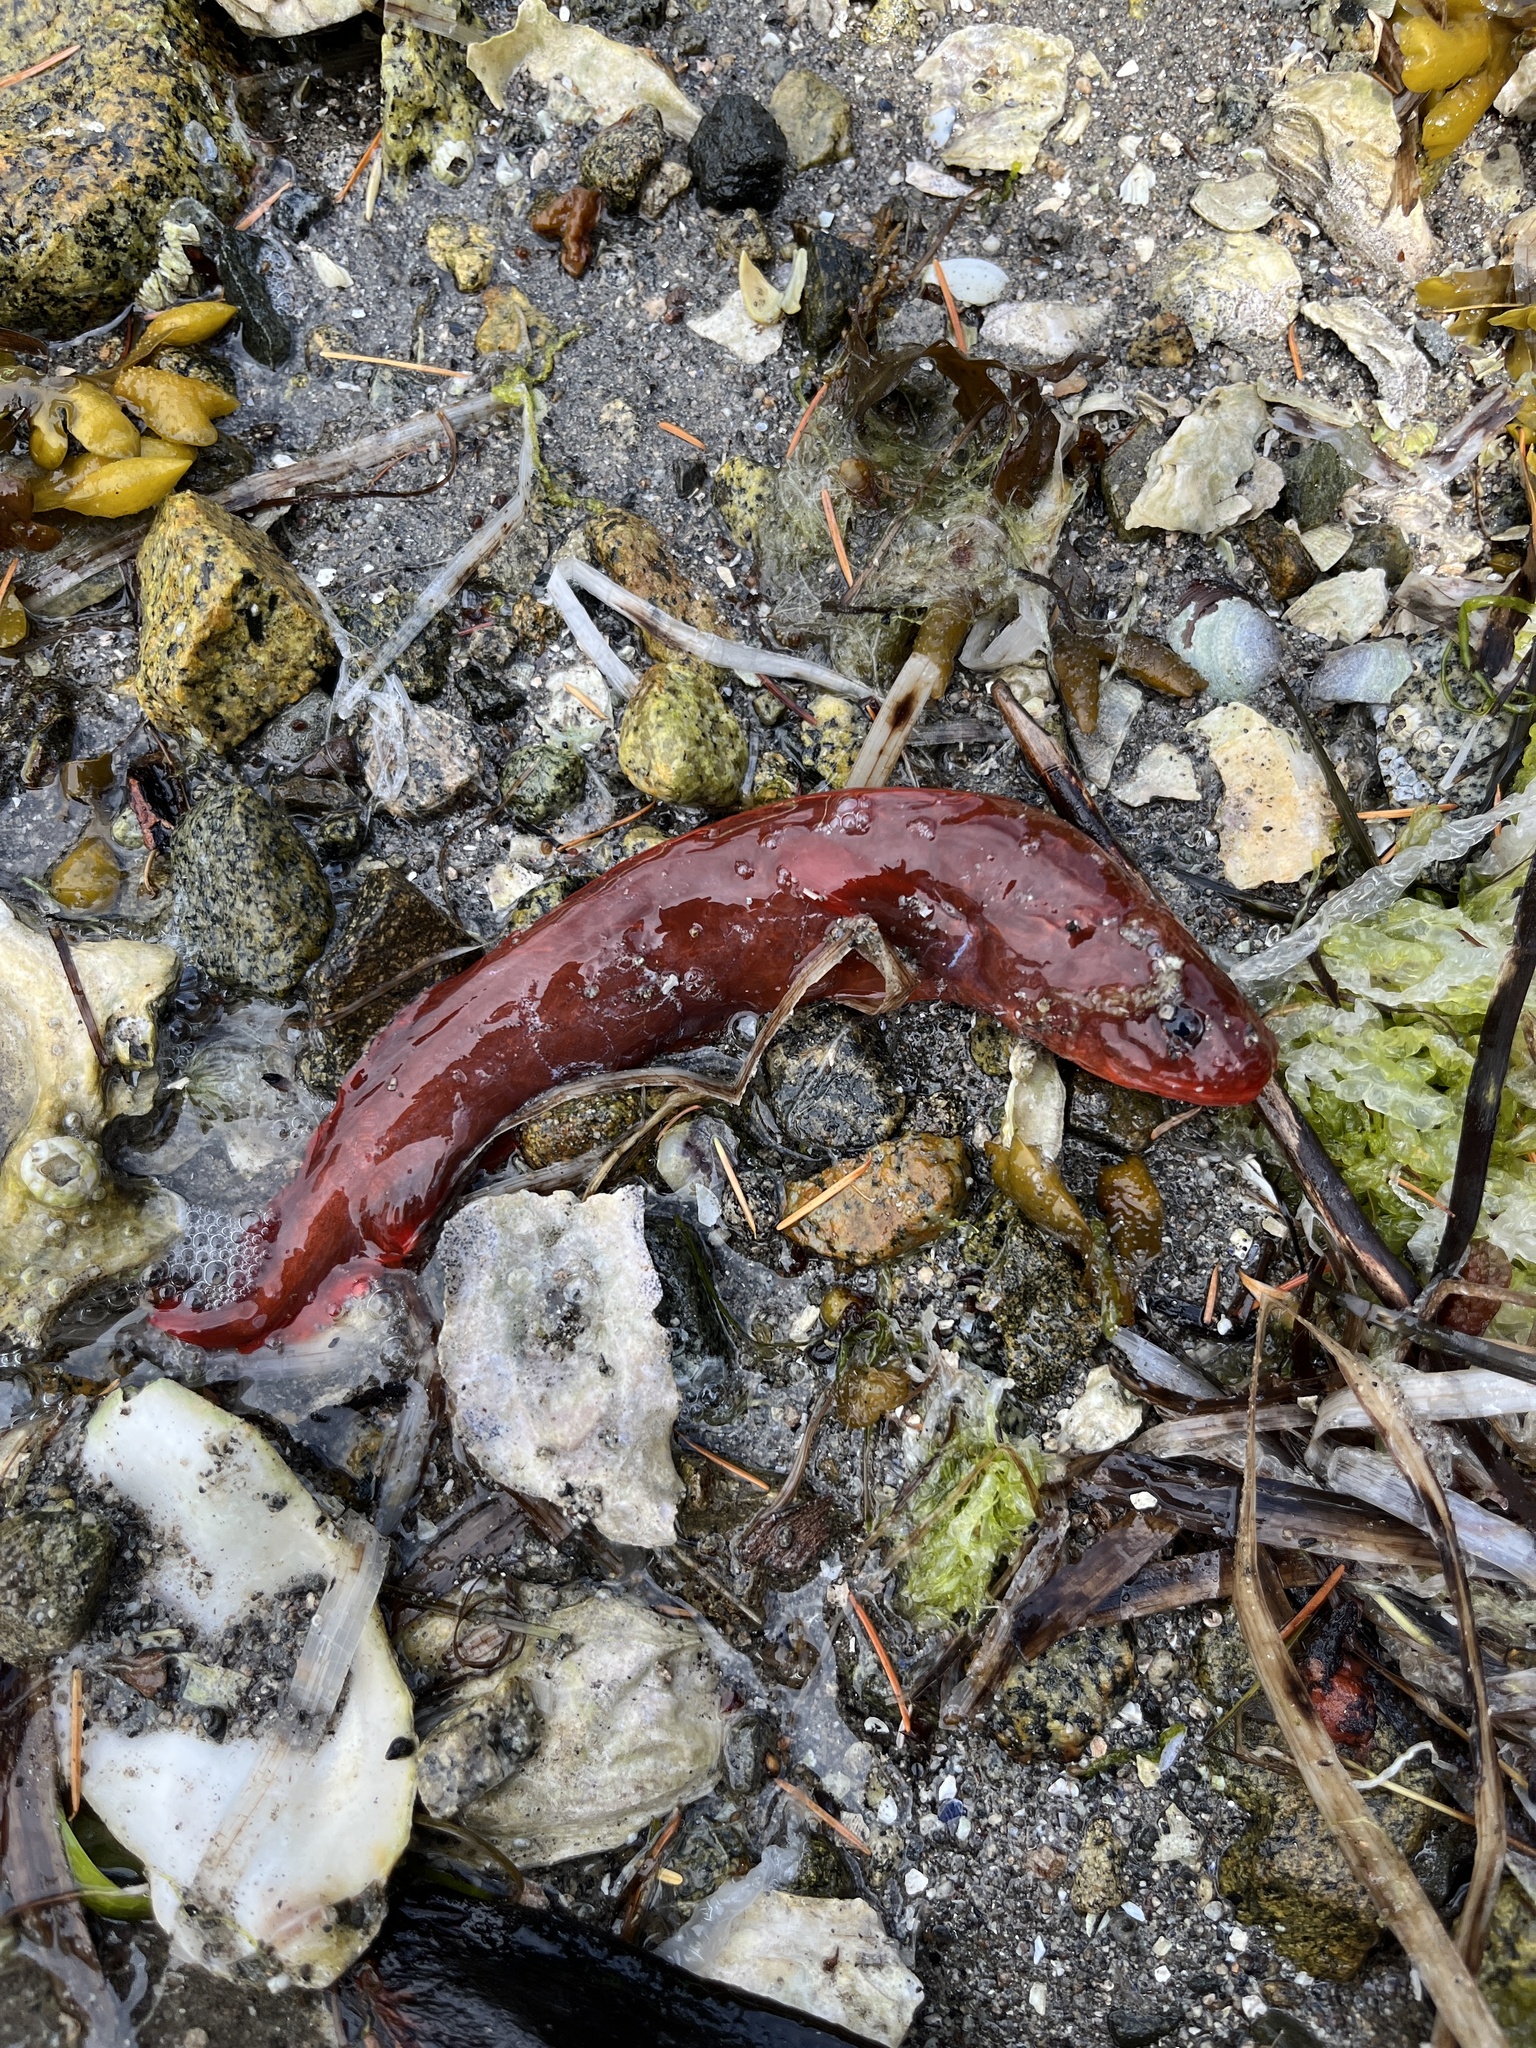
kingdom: Animalia
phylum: Chordata
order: Ophidiiformes
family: Bythitidae
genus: Brosmophycis
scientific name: Brosmophycis marginata
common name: Red brotula
